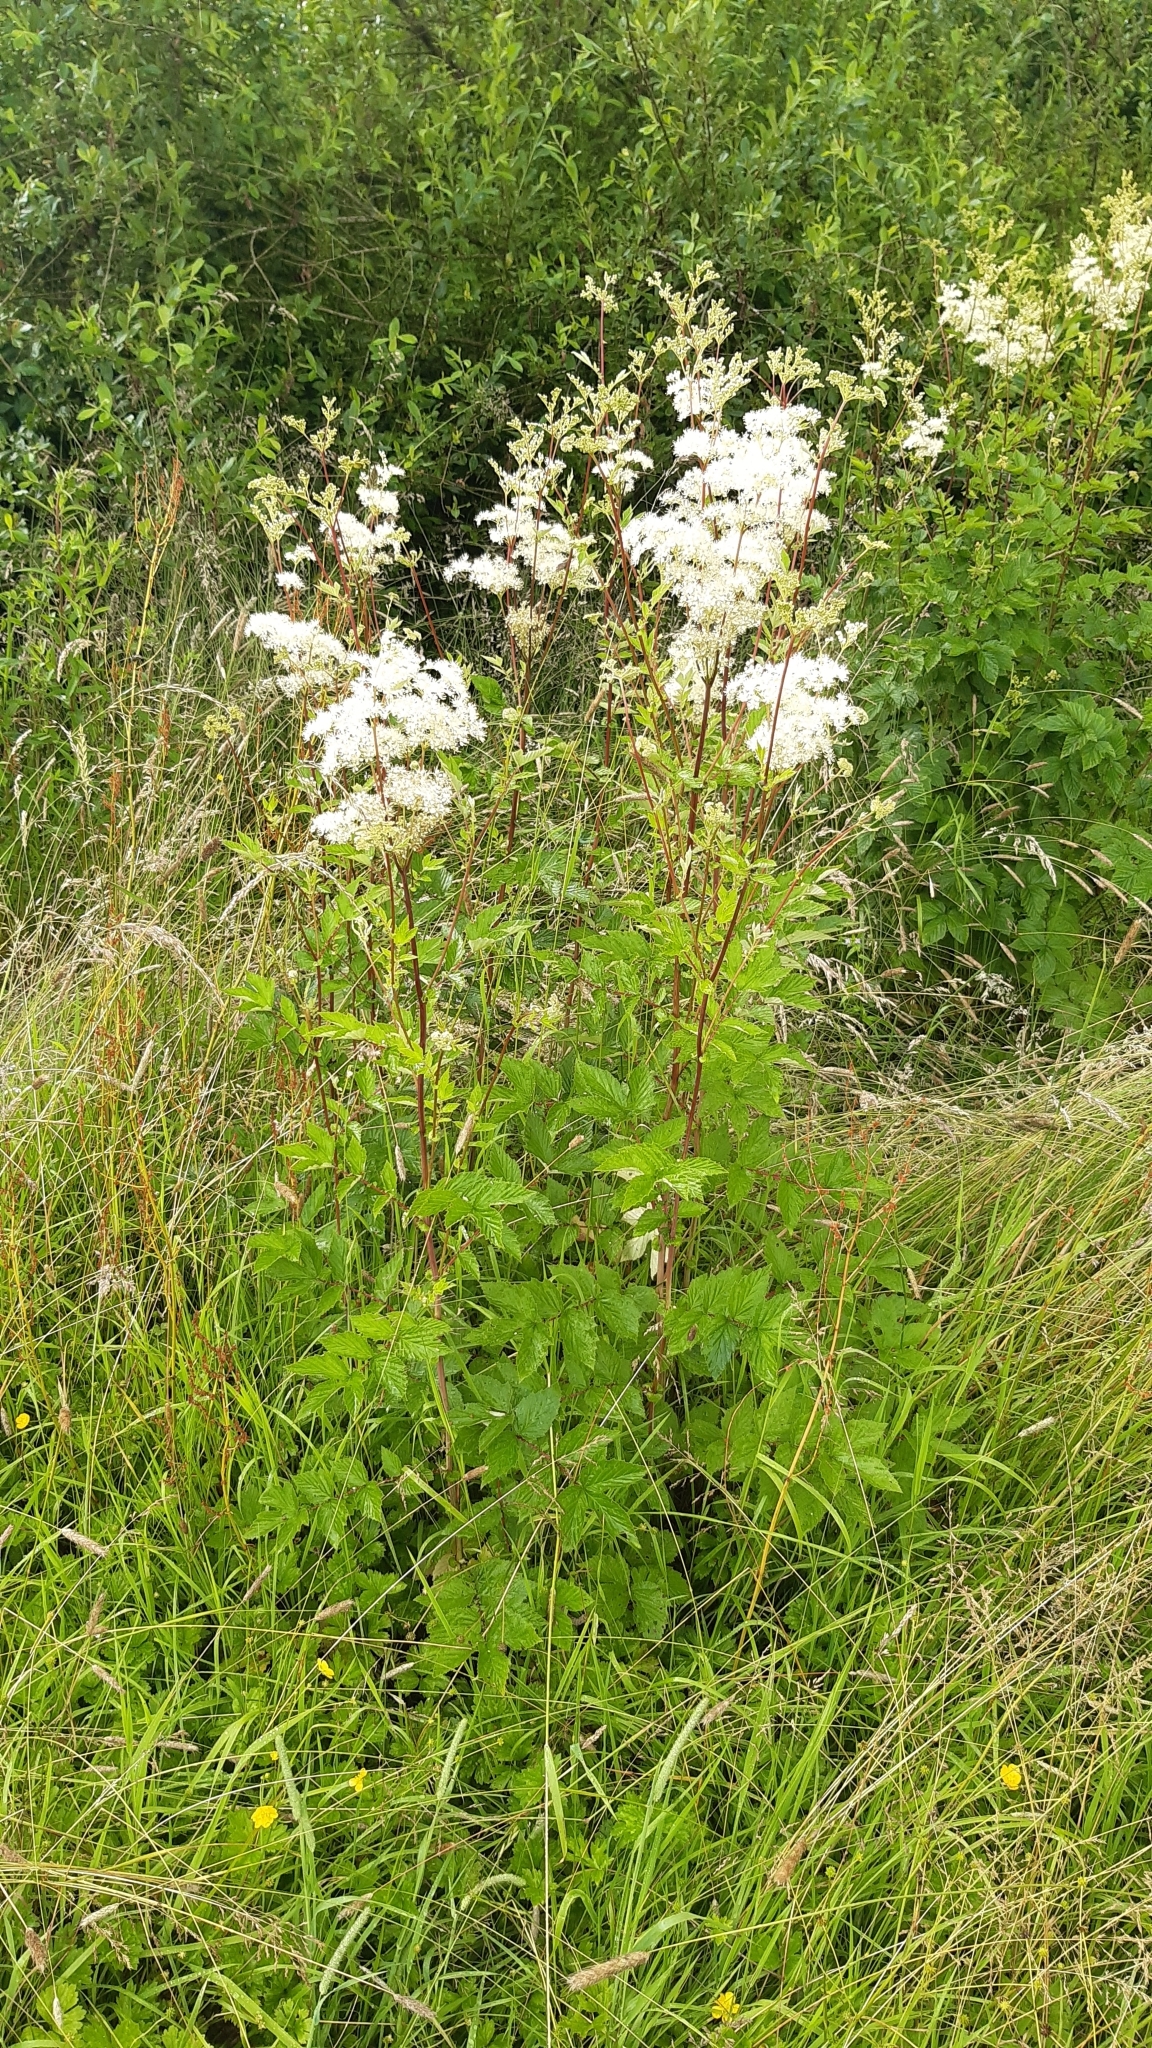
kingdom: Plantae
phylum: Tracheophyta
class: Magnoliopsida
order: Rosales
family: Rosaceae
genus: Filipendula
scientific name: Filipendula ulmaria
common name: Meadowsweet
